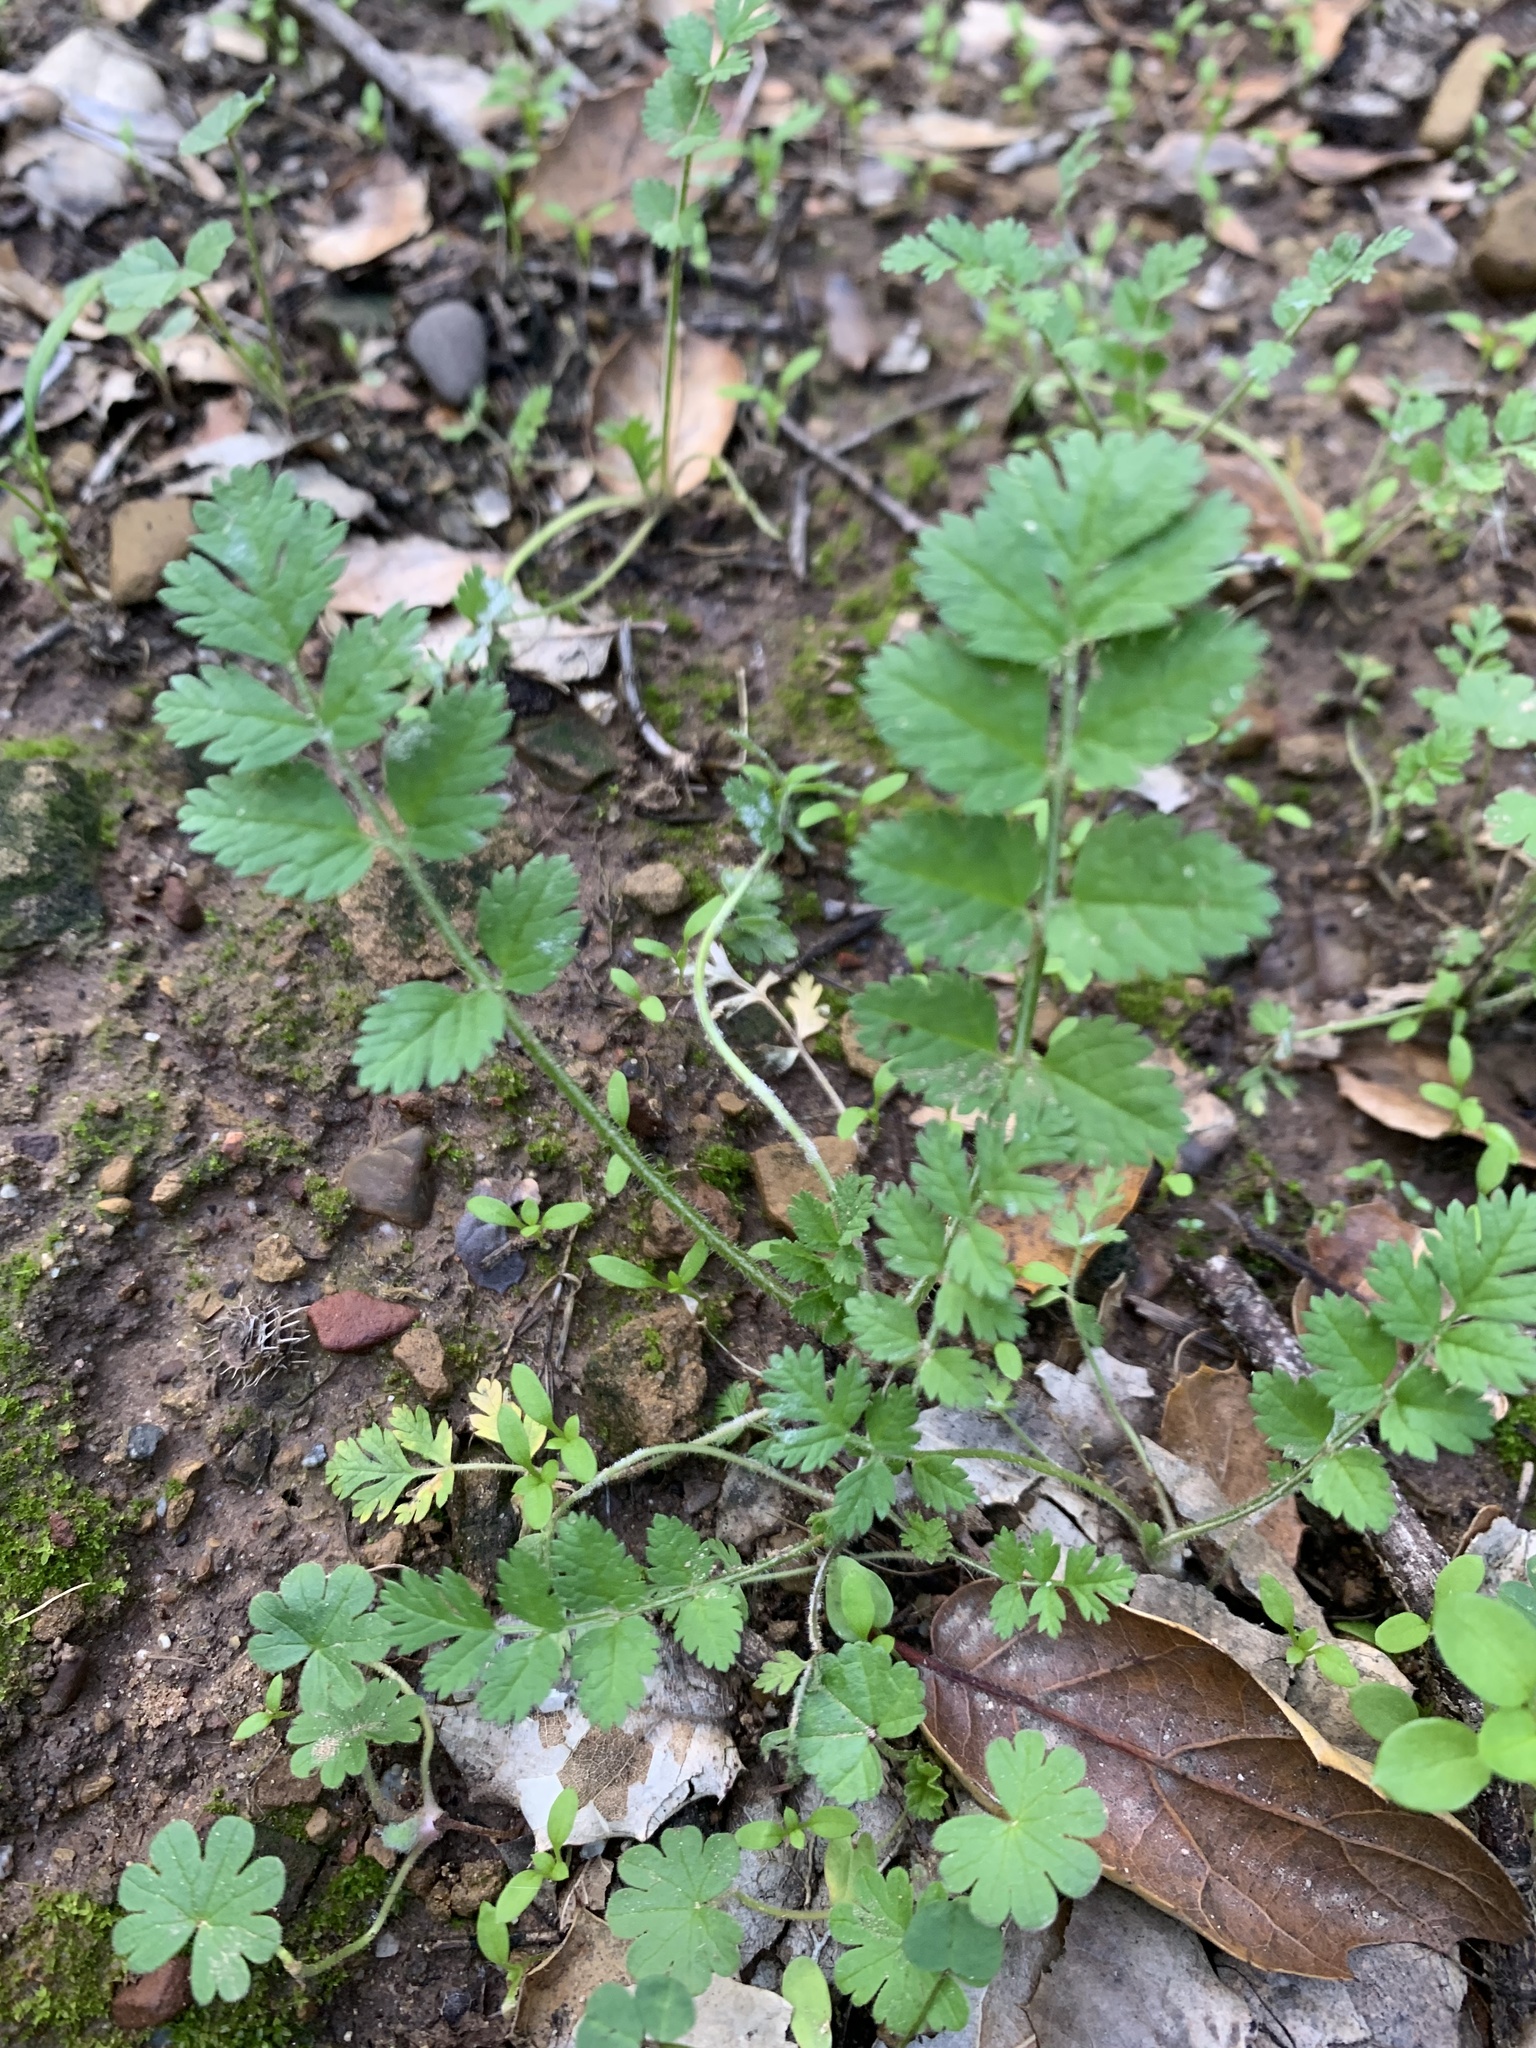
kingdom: Plantae
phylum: Tracheophyta
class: Magnoliopsida
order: Geraniales
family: Geraniaceae
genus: Erodium
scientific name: Erodium moschatum
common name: Musk stork's-bill
